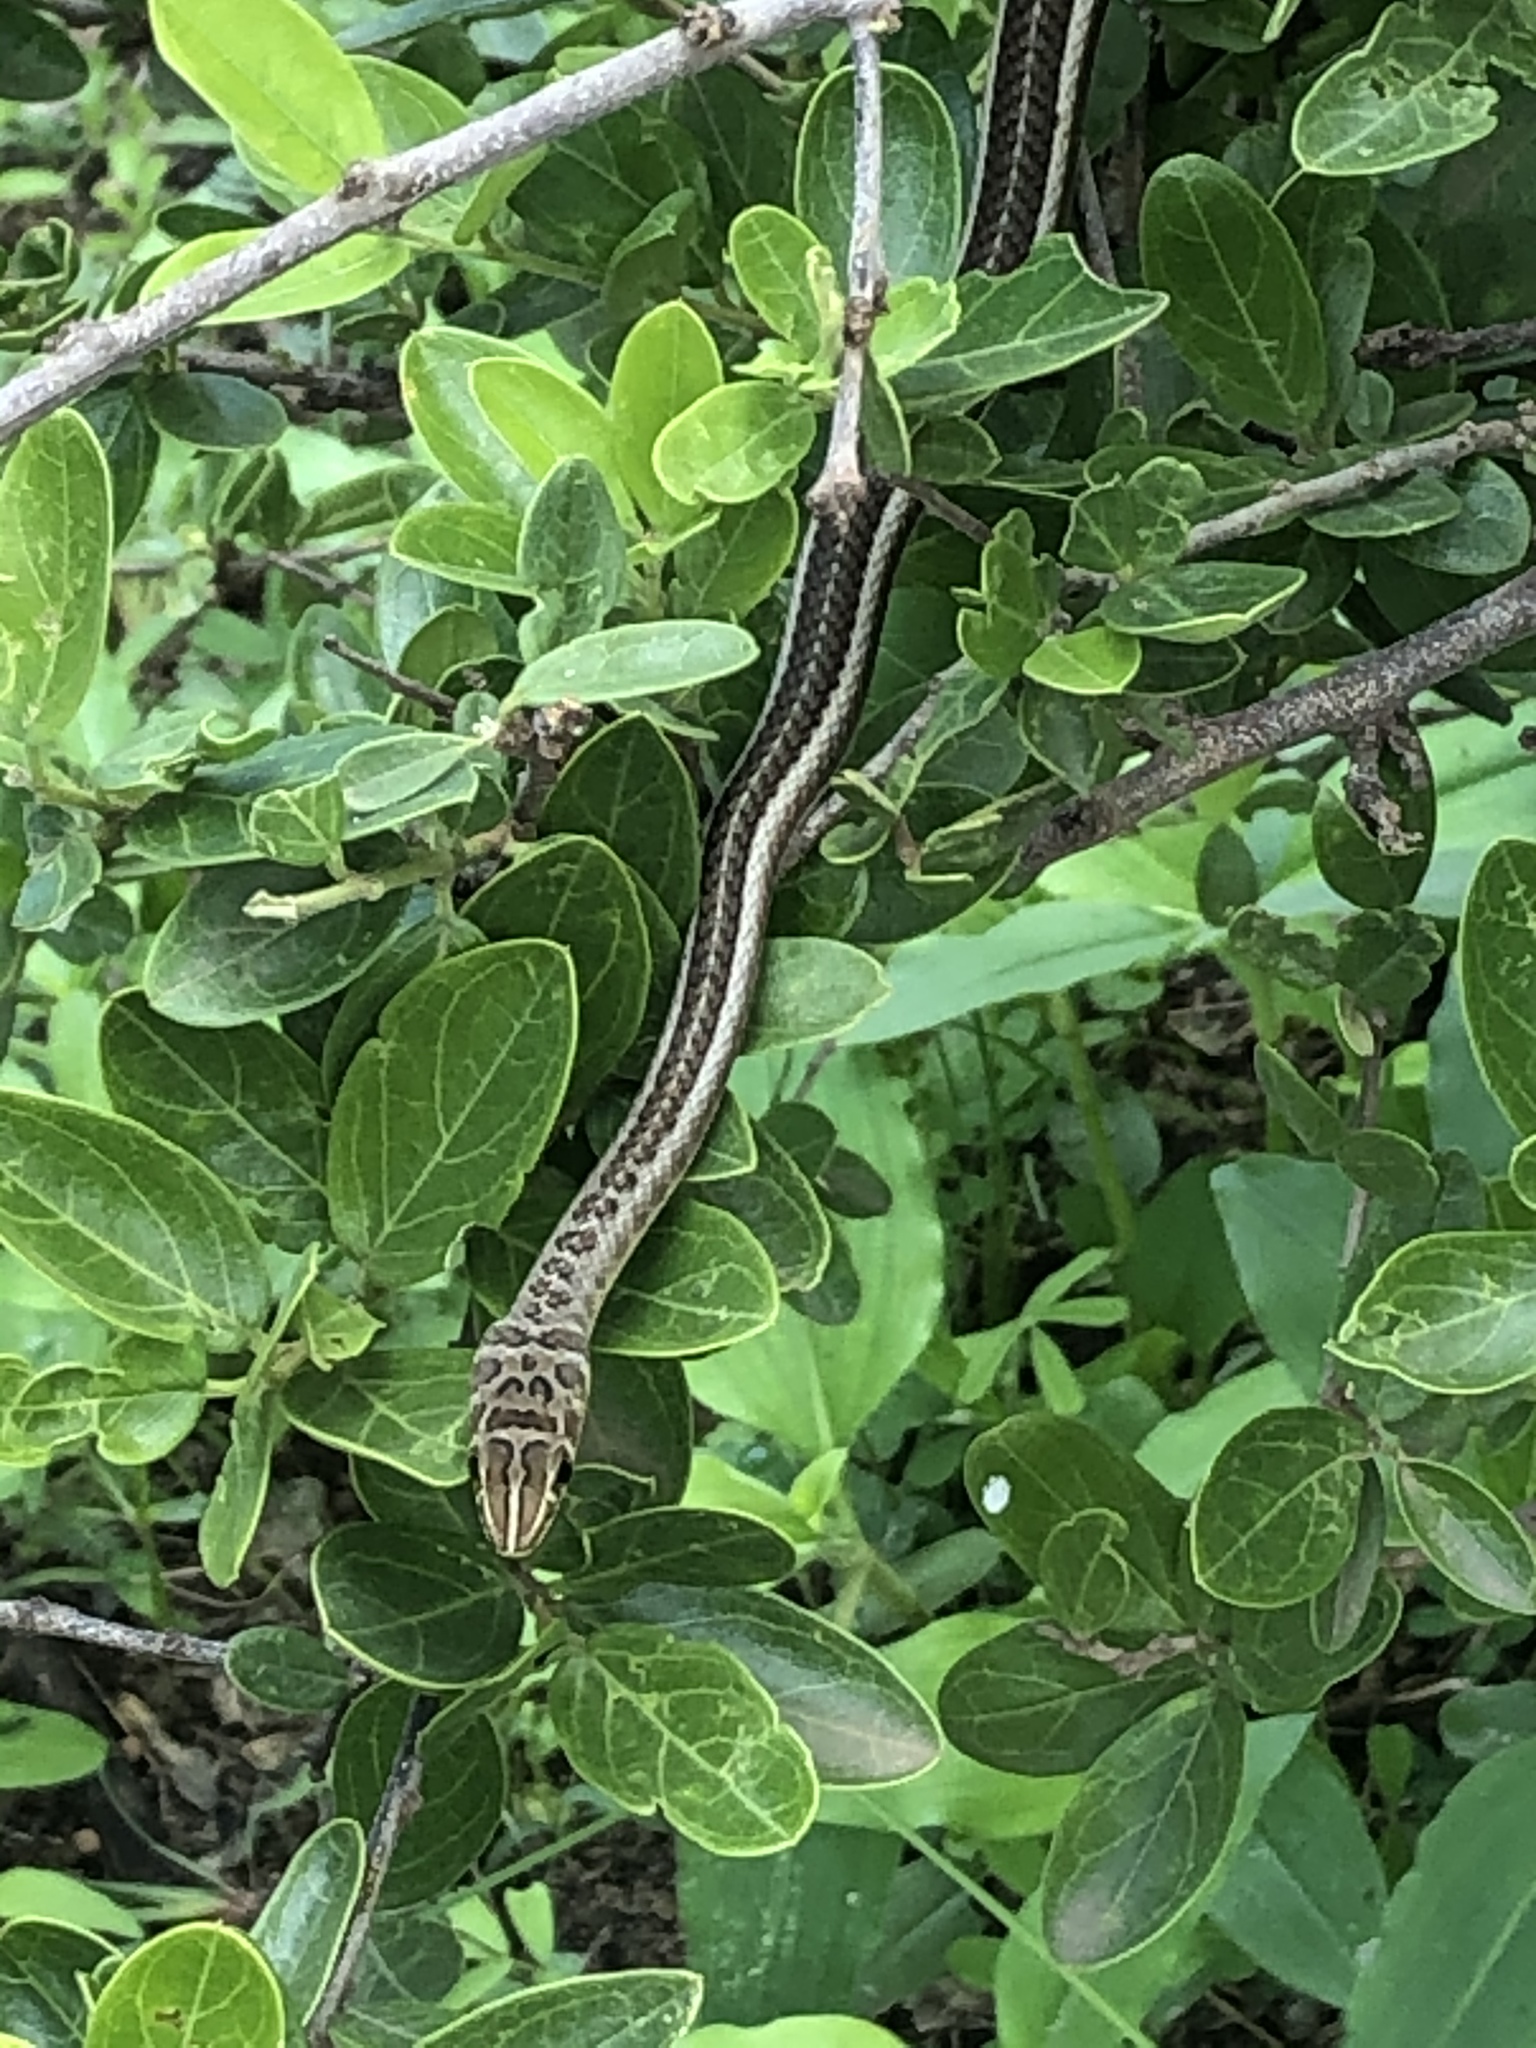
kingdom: Animalia
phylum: Chordata
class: Squamata
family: Psammophiidae
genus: Psammophis
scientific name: Psammophis sudanensis
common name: Northern stripe-bellied sand snake
